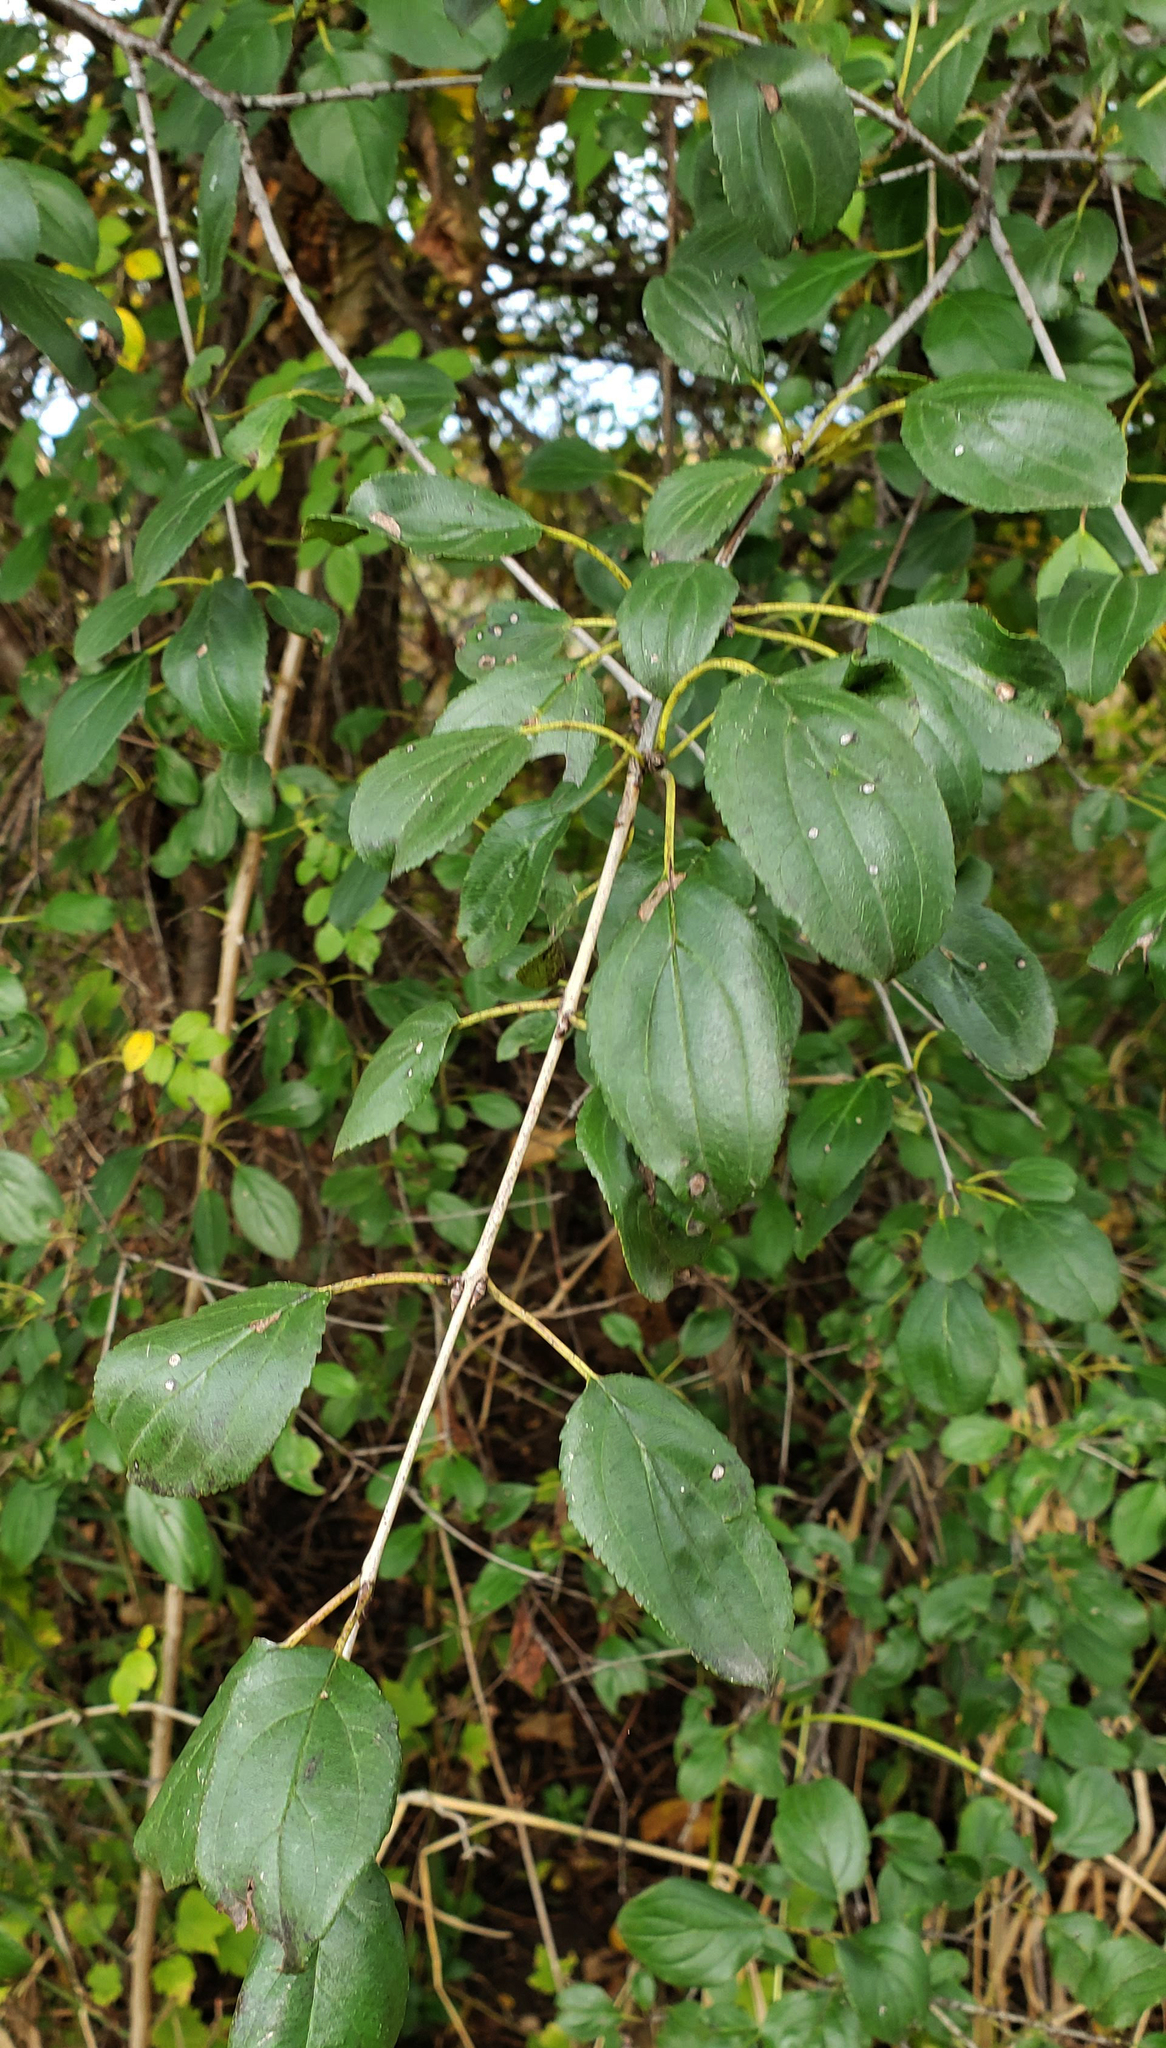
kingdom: Plantae
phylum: Tracheophyta
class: Magnoliopsida
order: Rosales
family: Rhamnaceae
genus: Rhamnus
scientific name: Rhamnus cathartica
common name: Common buckthorn
